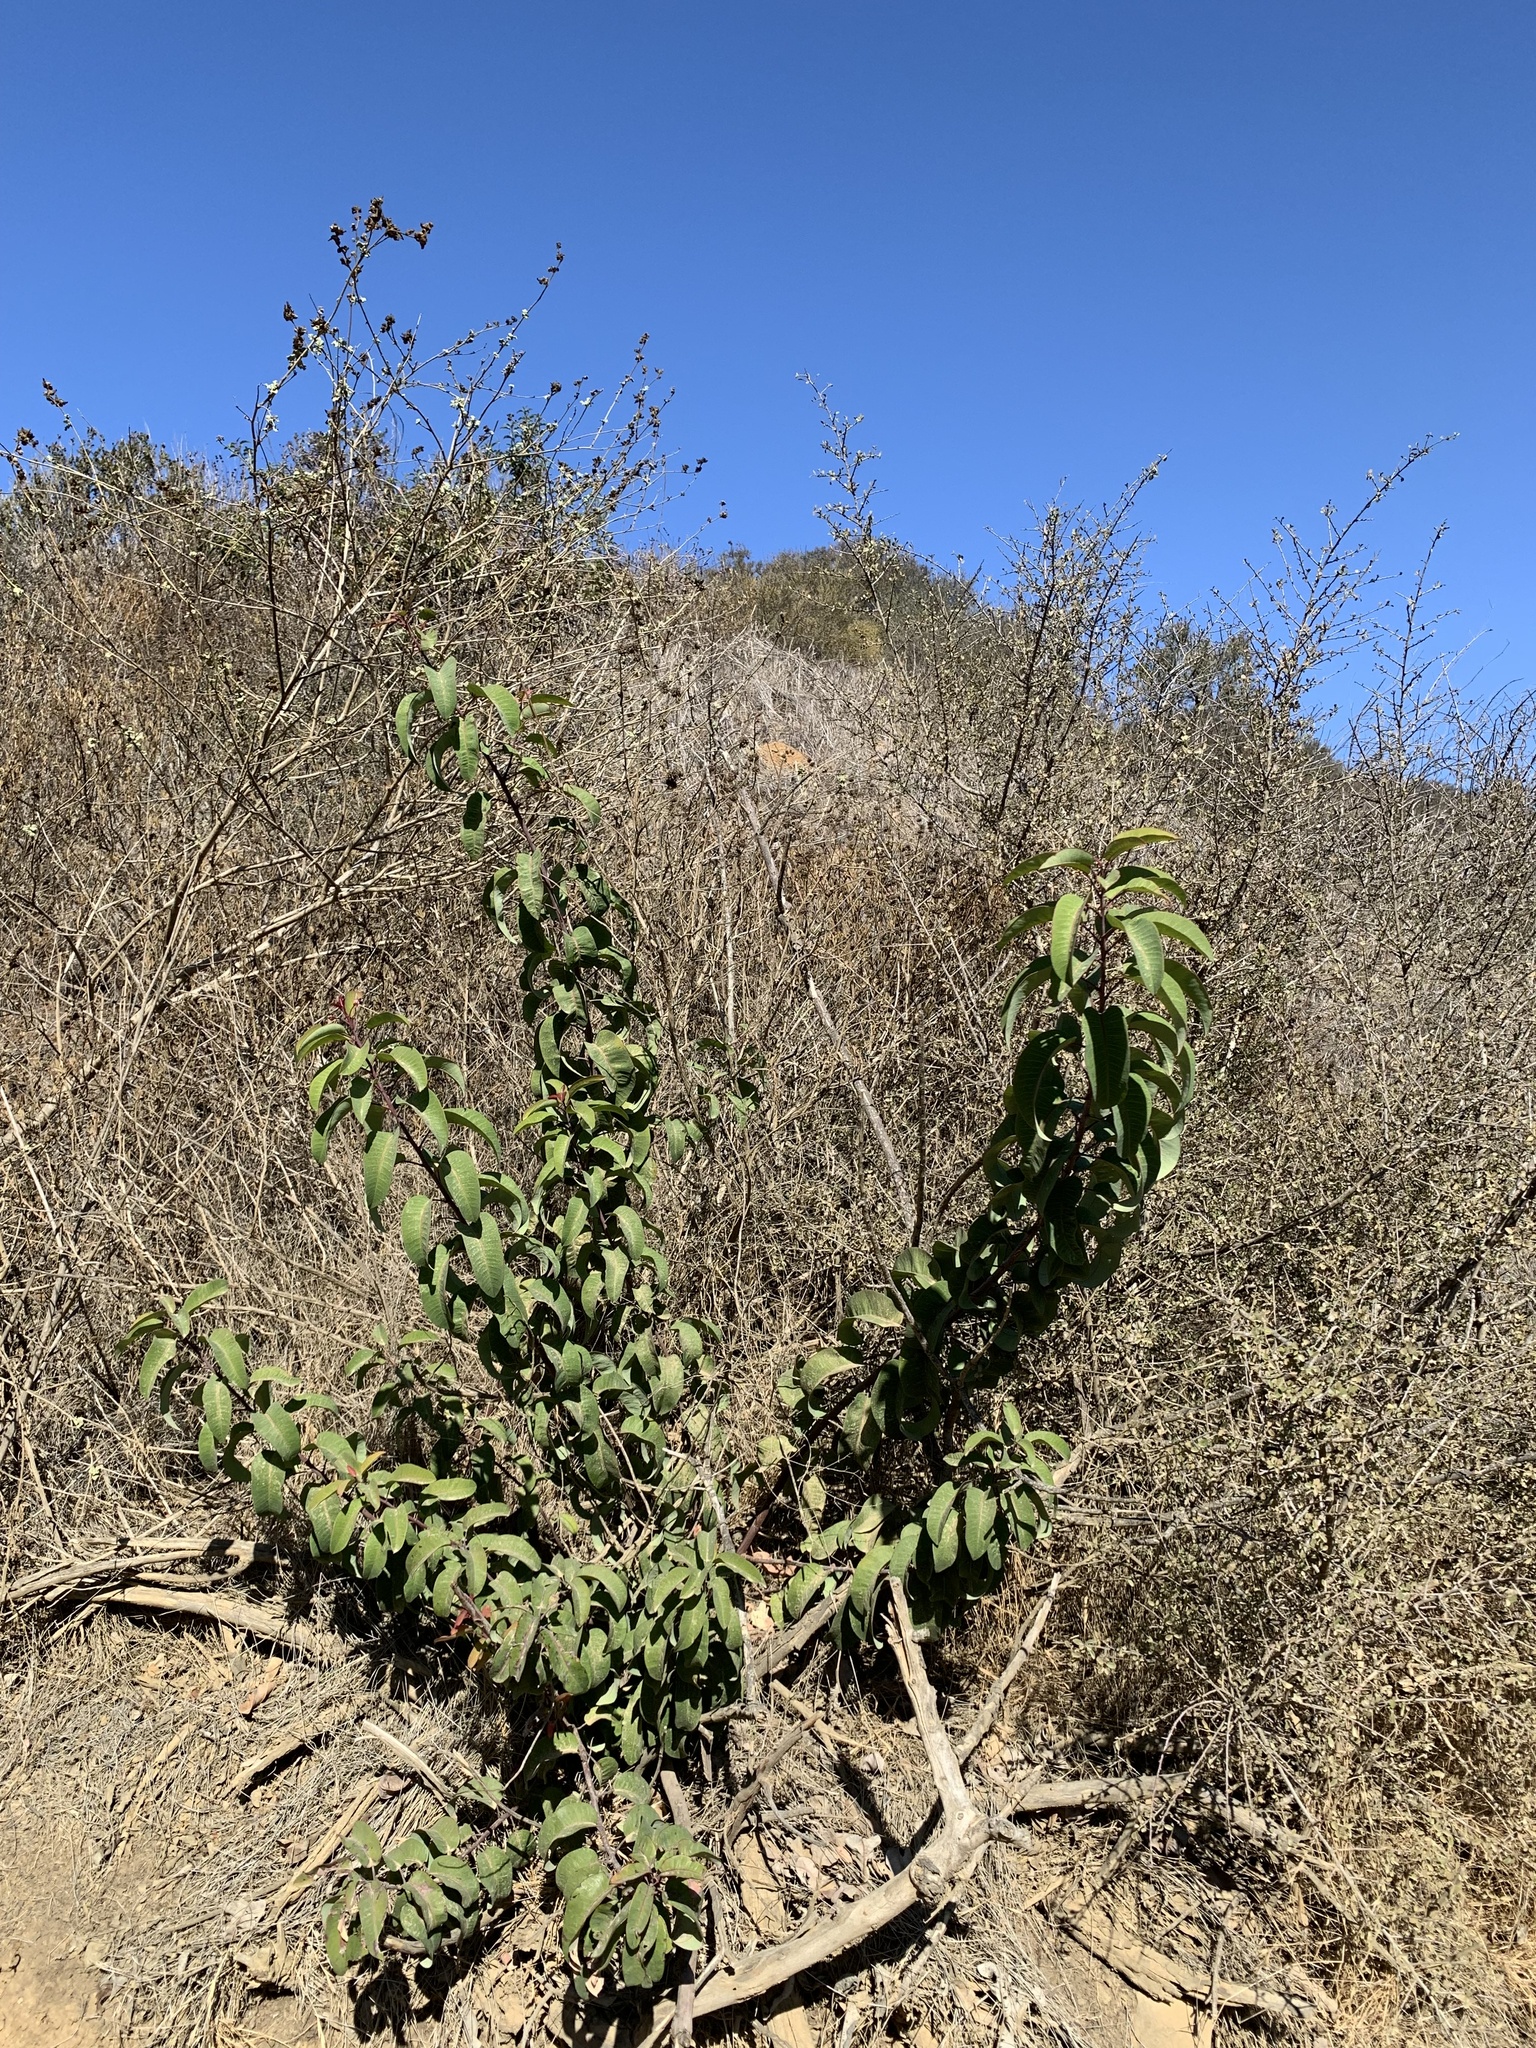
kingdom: Plantae
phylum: Tracheophyta
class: Magnoliopsida
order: Sapindales
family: Anacardiaceae
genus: Malosma
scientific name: Malosma laurina
